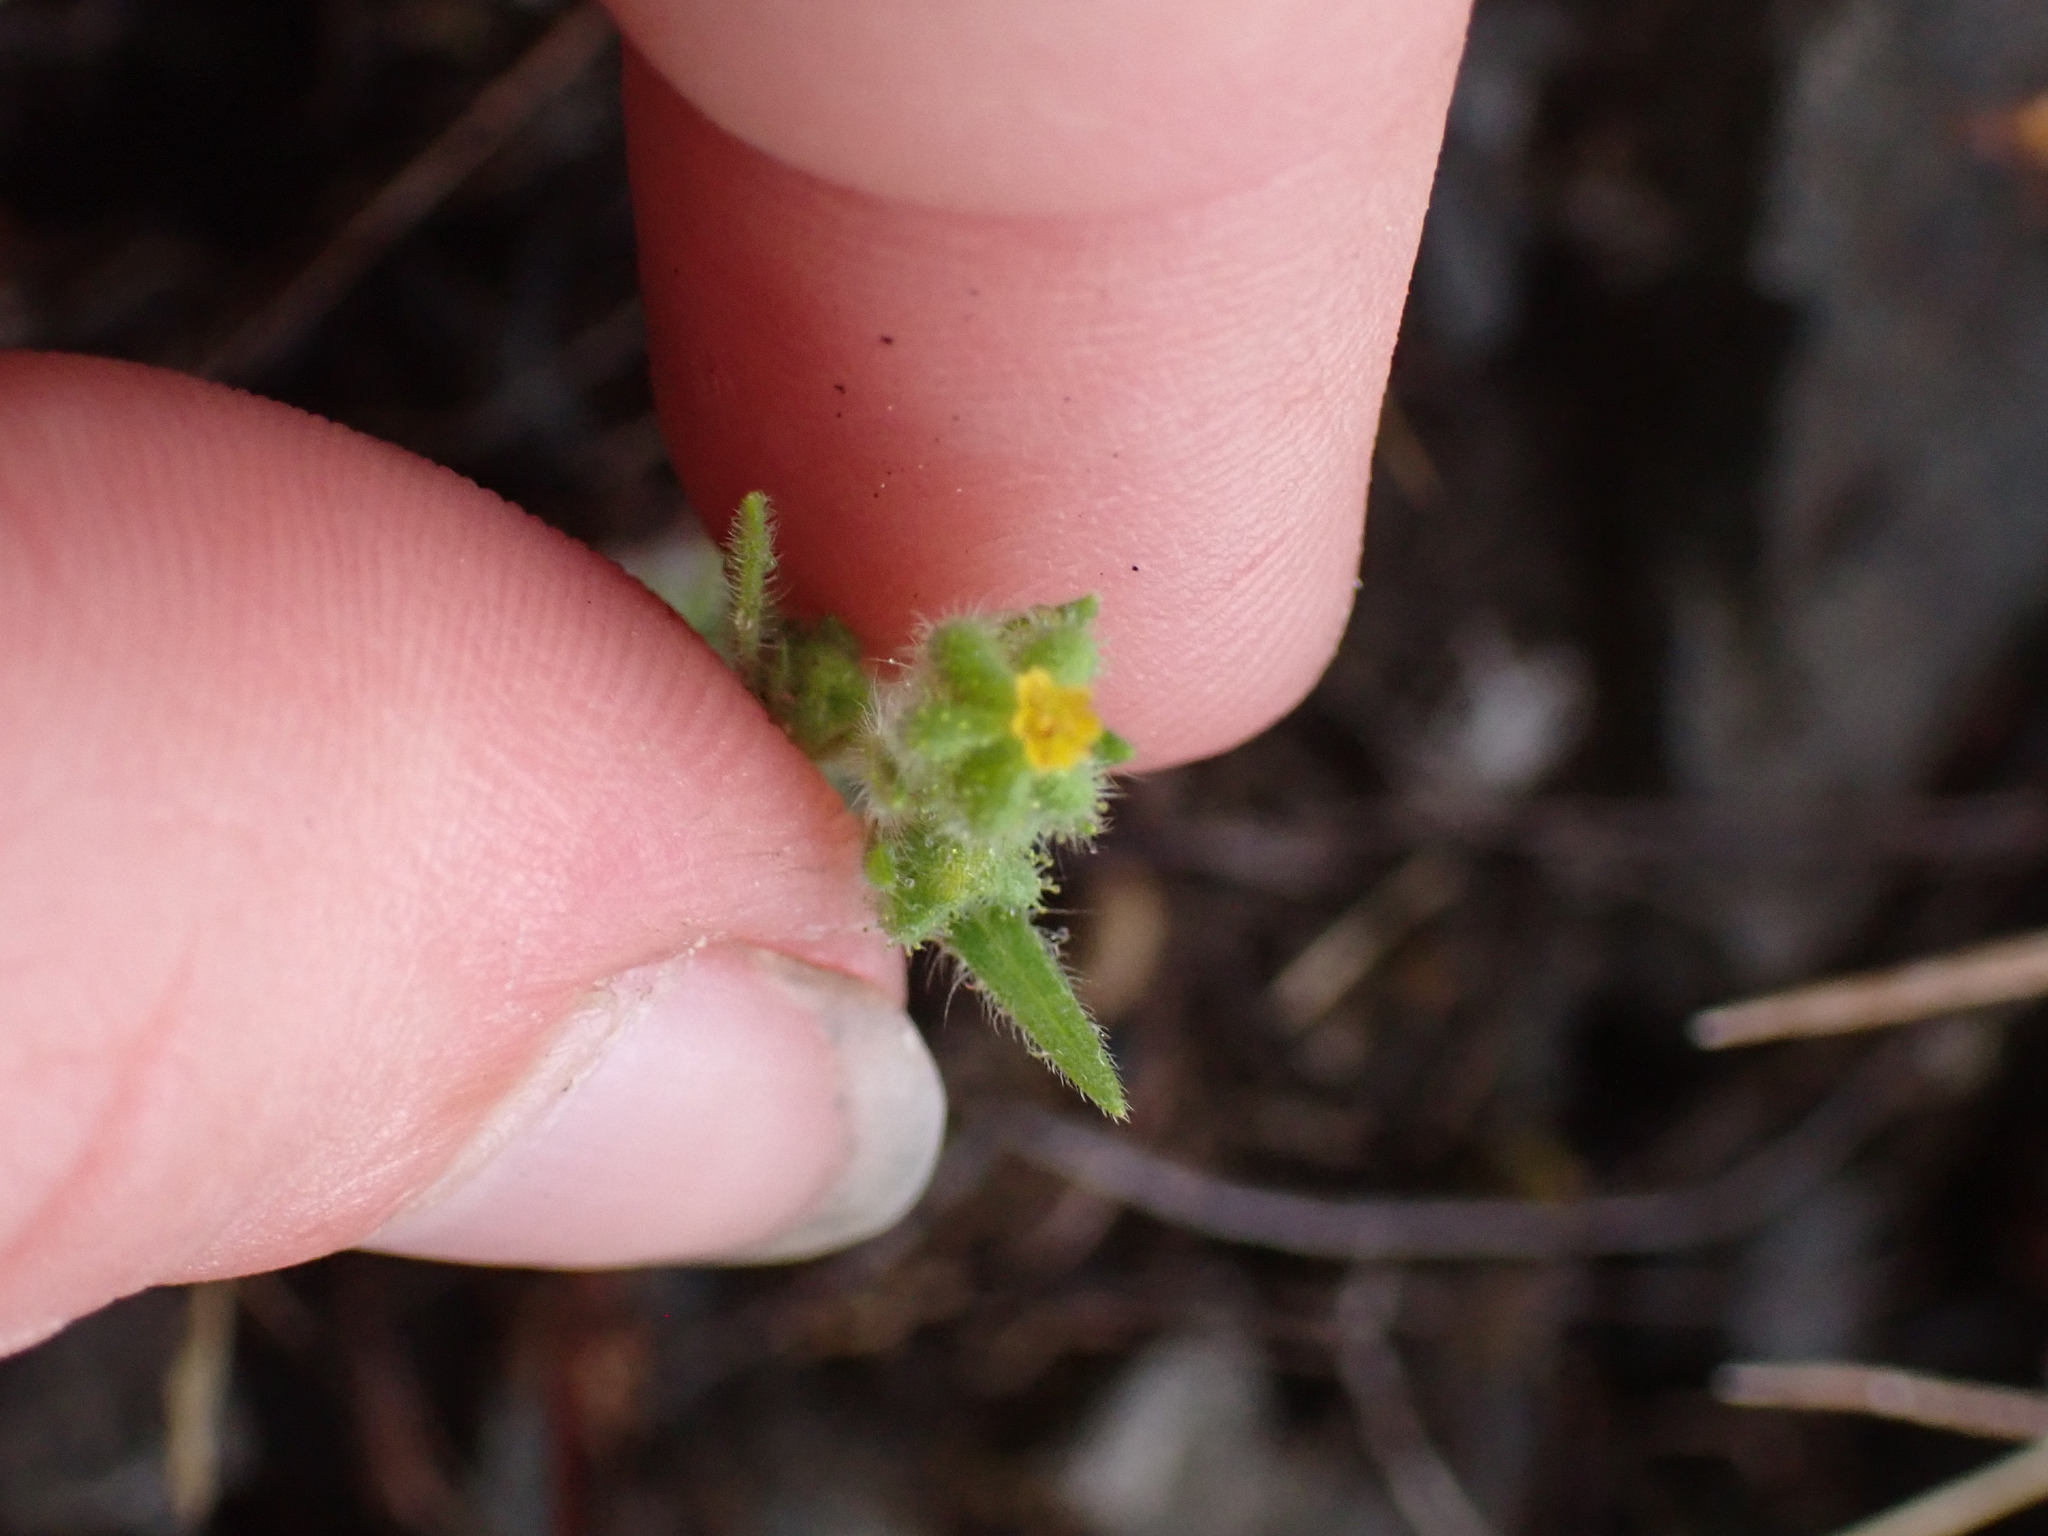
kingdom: Plantae
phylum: Tracheophyta
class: Magnoliopsida
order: Asterales
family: Asteraceae
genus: Madia
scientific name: Madia exigua
